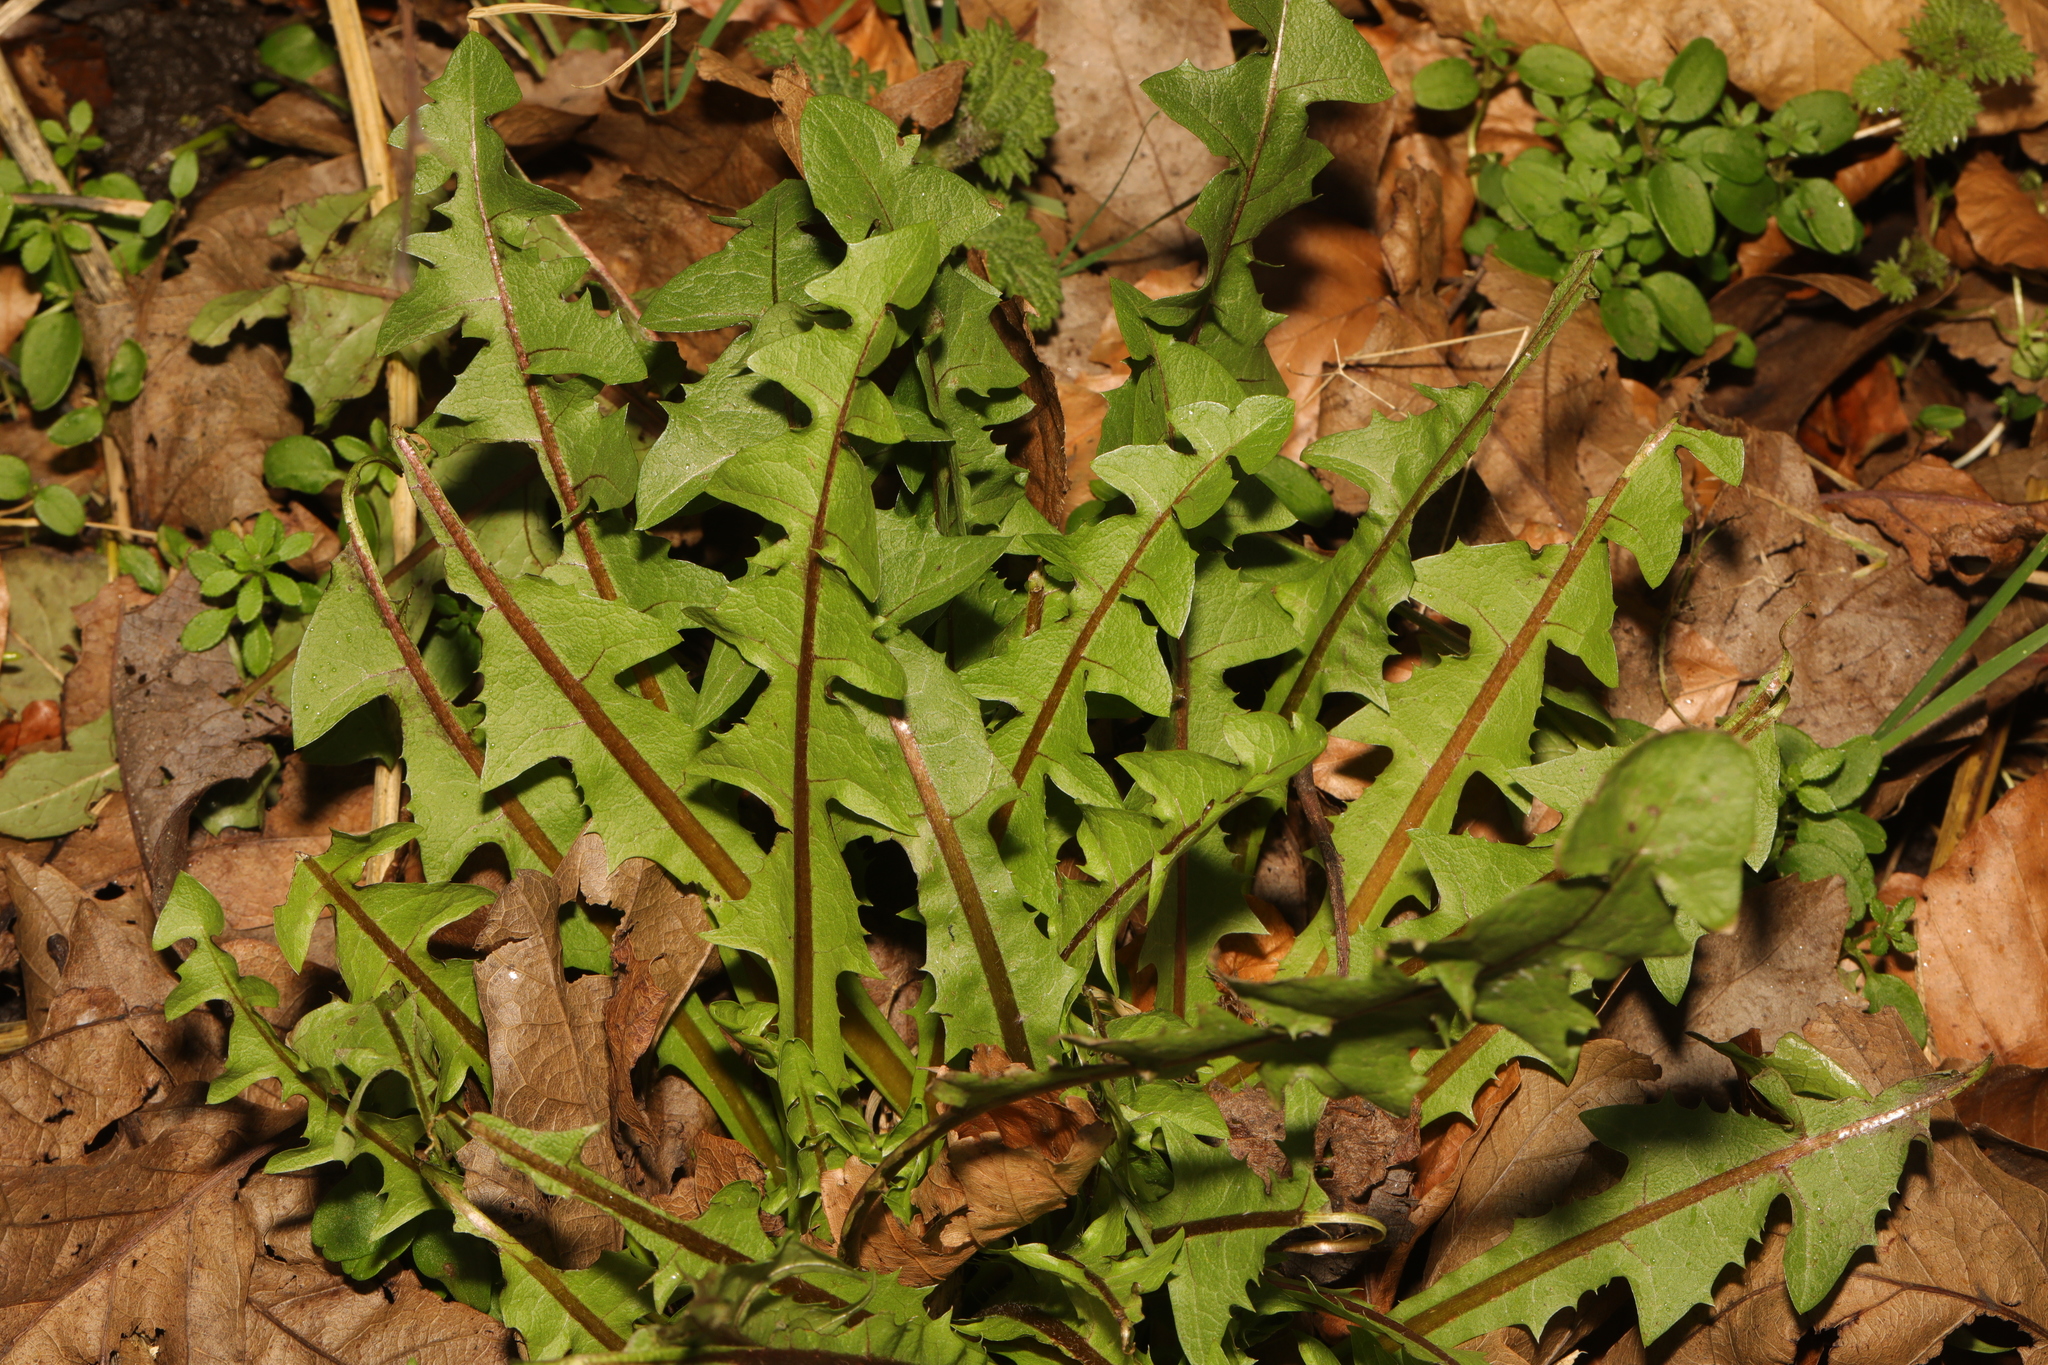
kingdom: Plantae
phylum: Tracheophyta
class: Magnoliopsida
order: Asterales
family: Asteraceae
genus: Taraxacum
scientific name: Taraxacum officinale
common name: Common dandelion
